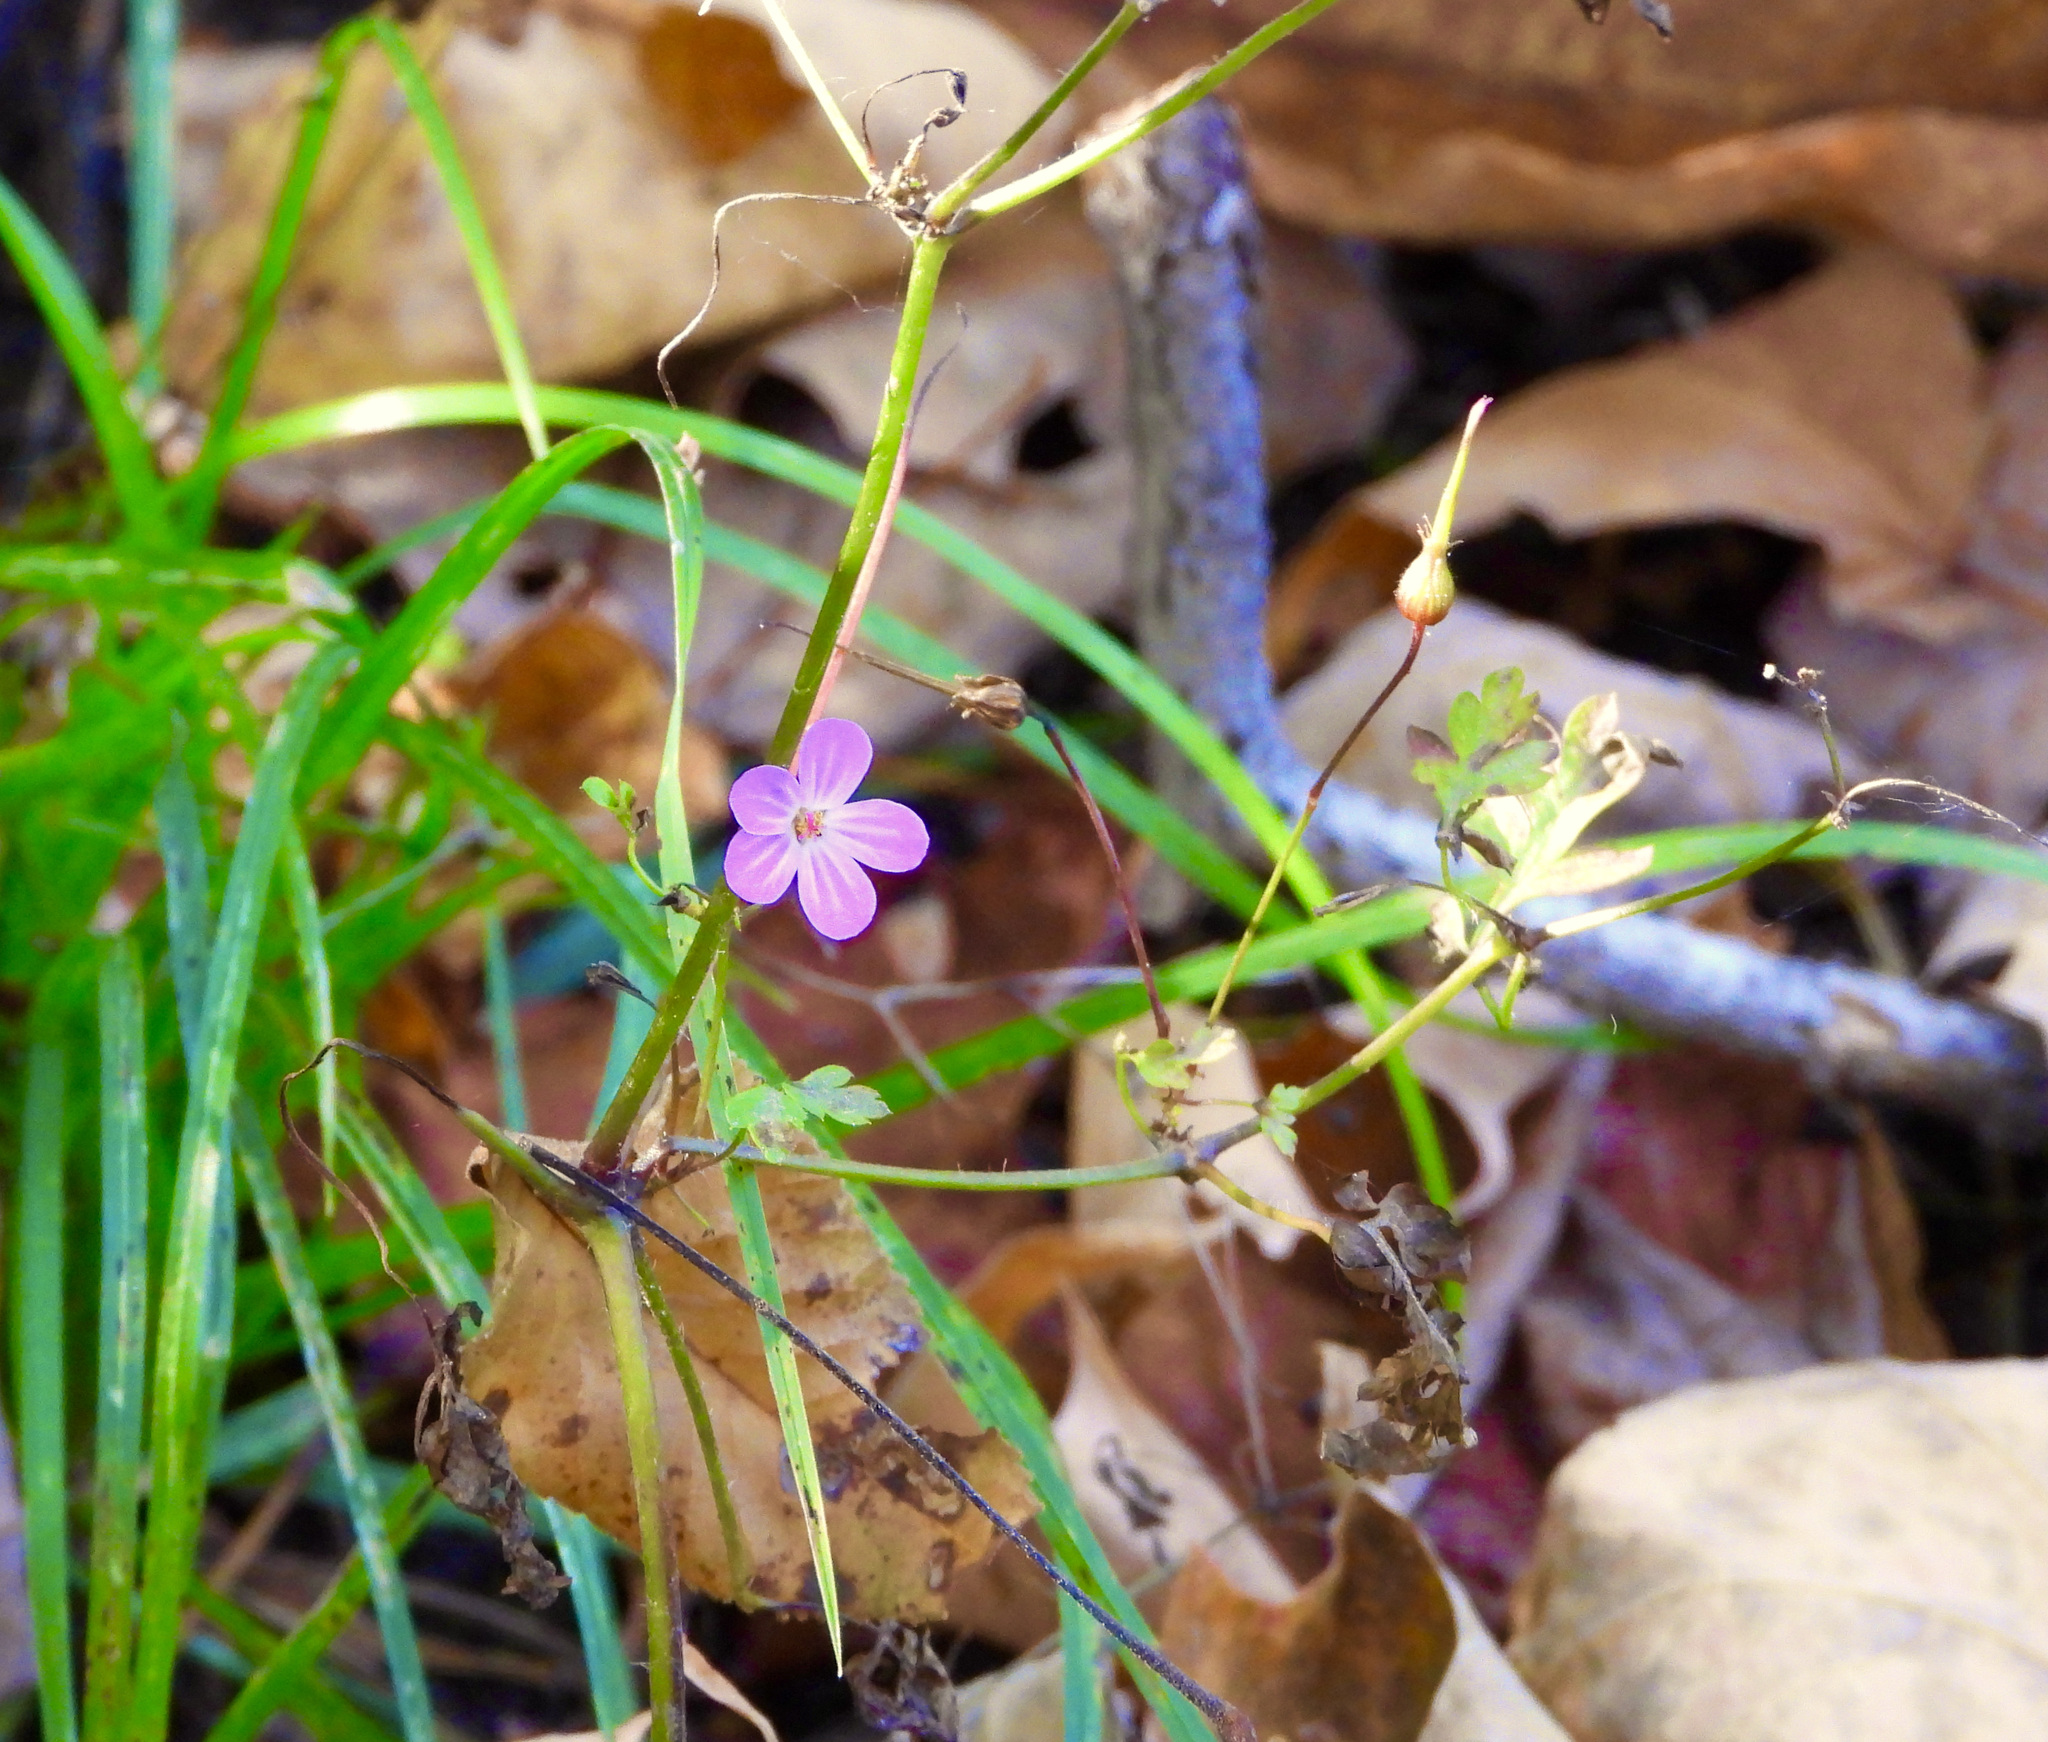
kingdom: Plantae
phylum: Tracheophyta
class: Magnoliopsida
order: Geraniales
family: Geraniaceae
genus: Geranium
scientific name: Geranium robertianum
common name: Herb-robert
